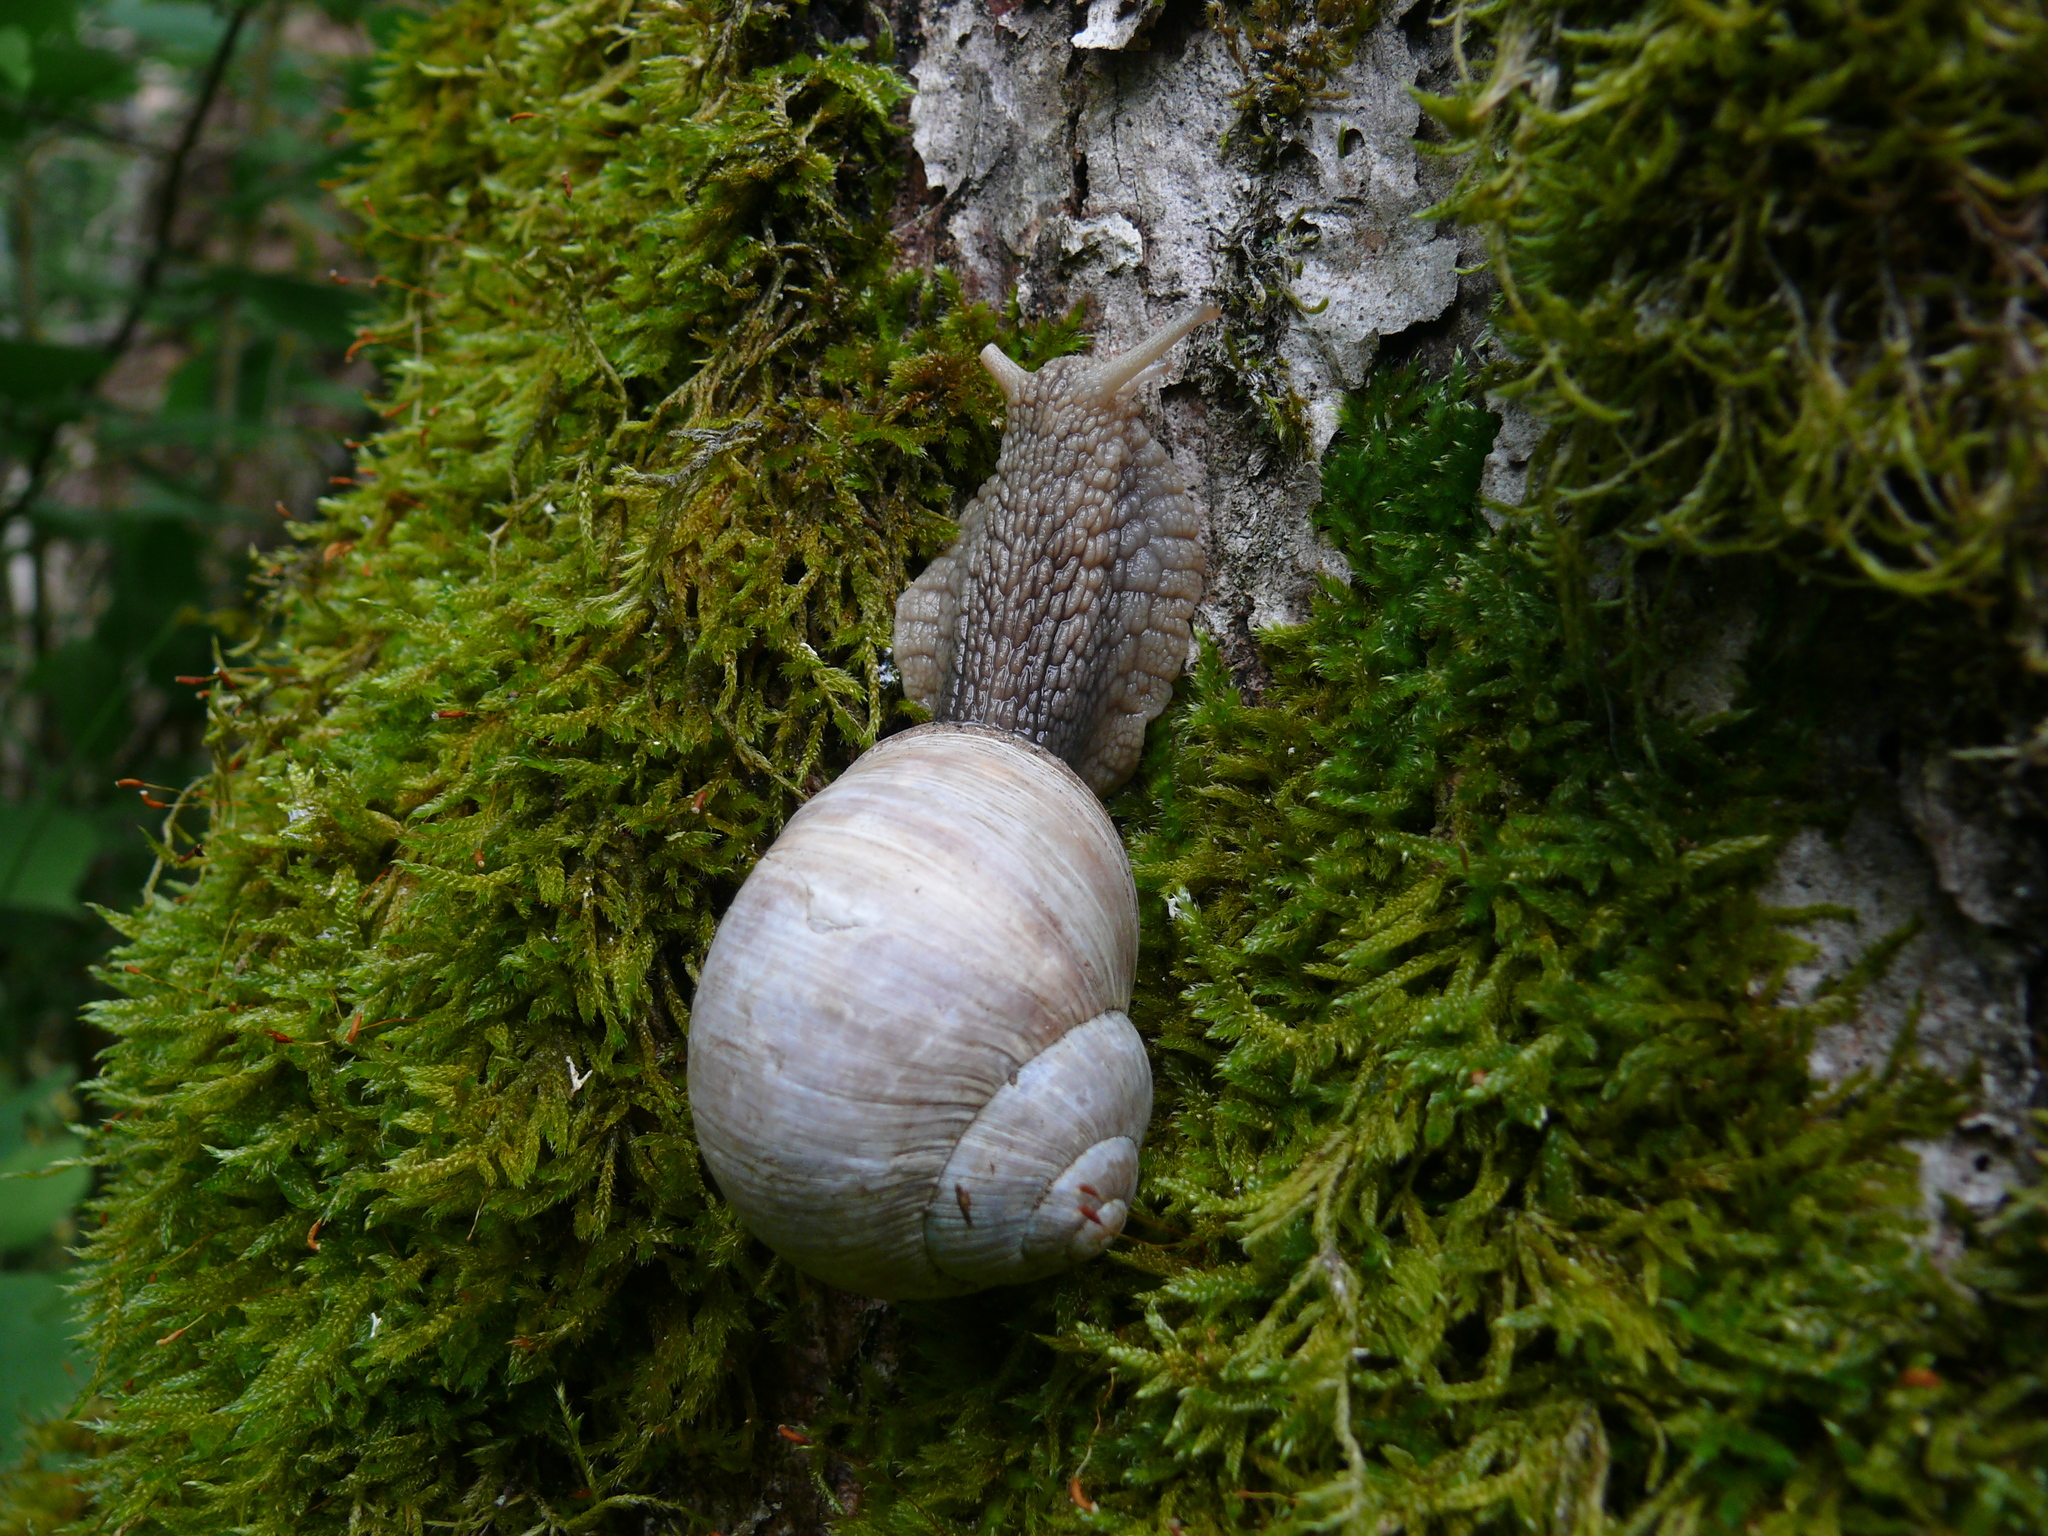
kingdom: Animalia
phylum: Mollusca
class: Gastropoda
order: Stylommatophora
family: Helicidae
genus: Helix
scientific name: Helix pomatia
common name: Roman snail
